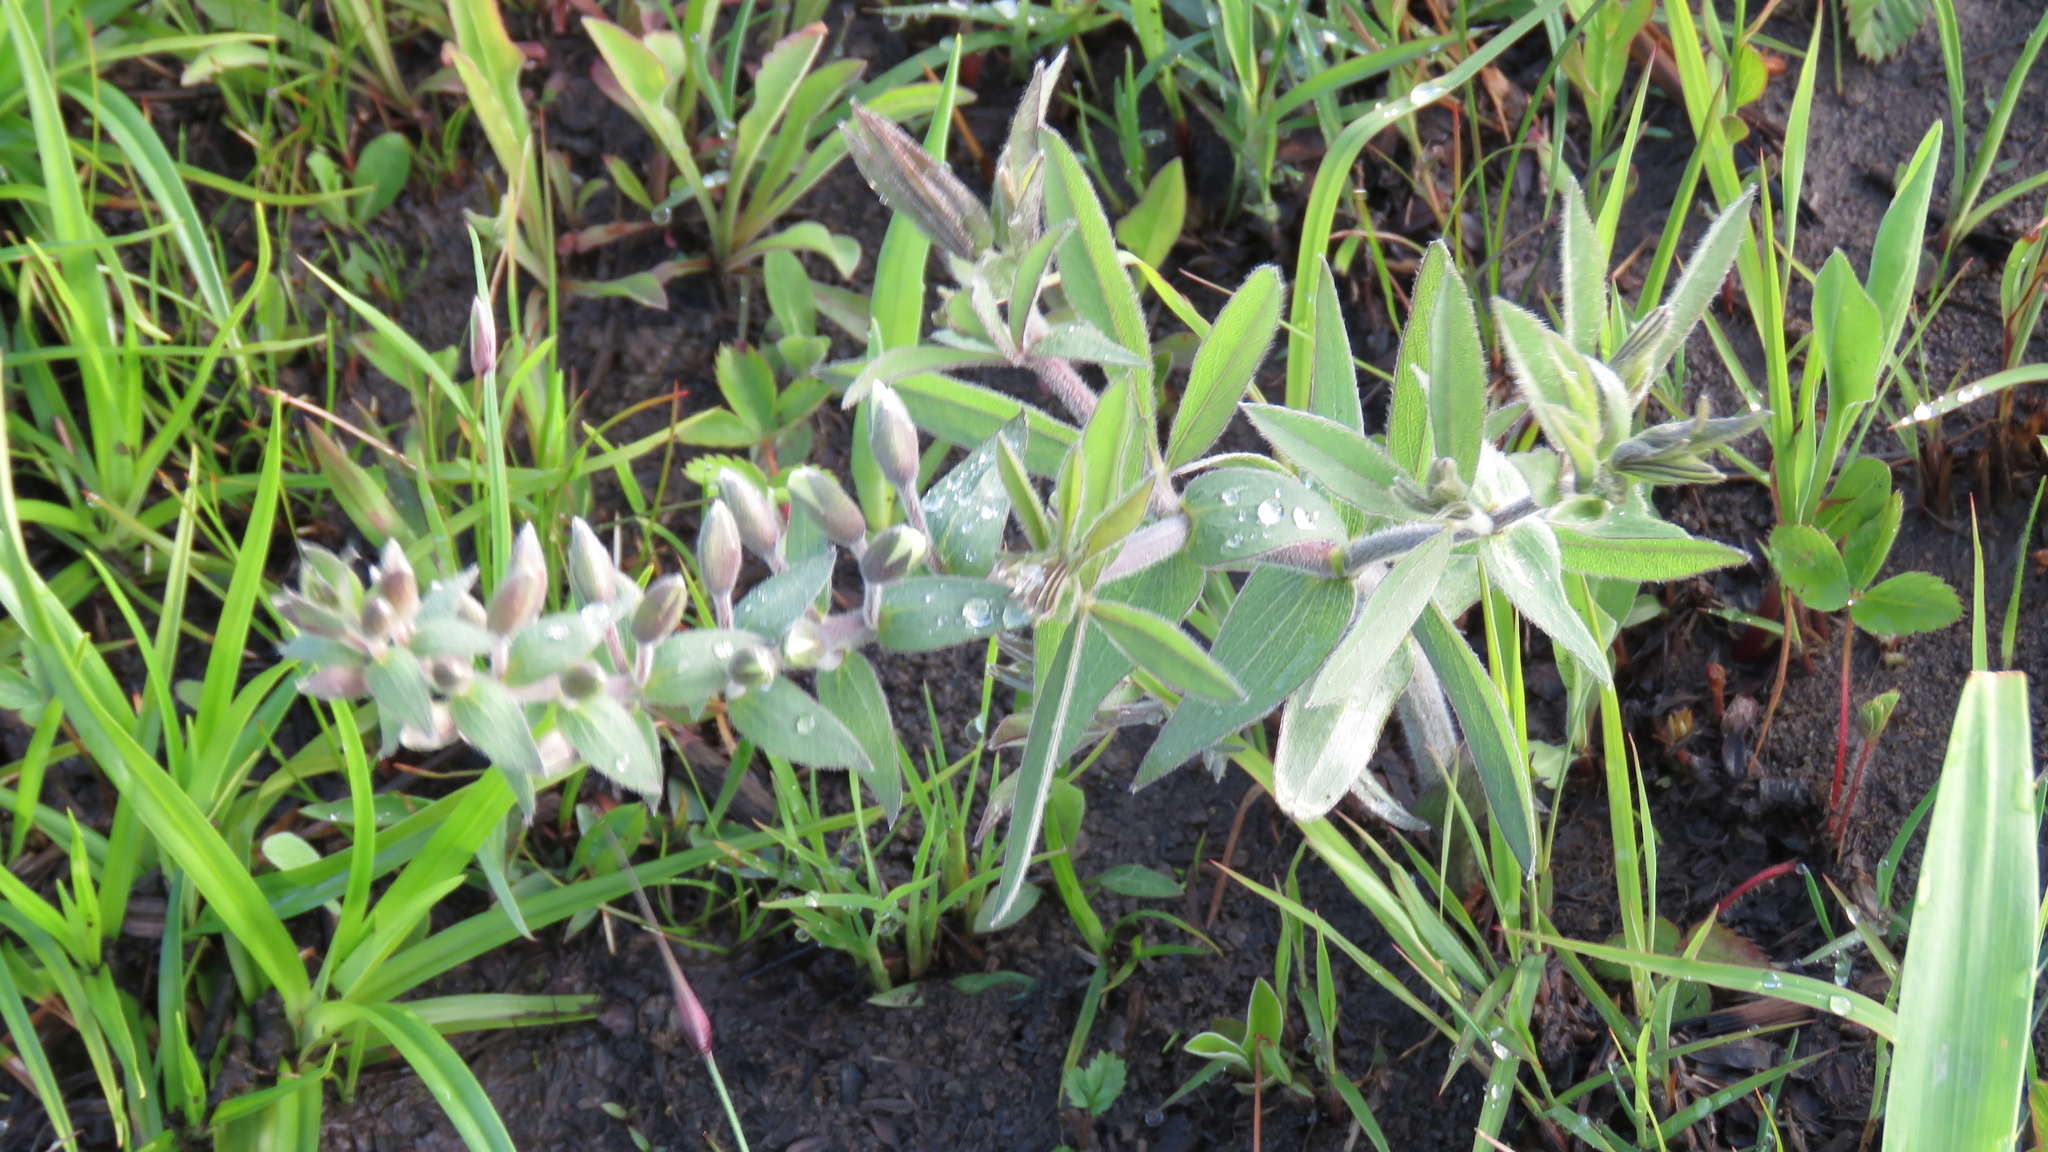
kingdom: Plantae
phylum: Tracheophyta
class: Magnoliopsida
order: Fabales
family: Fabaceae
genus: Baptisia
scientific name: Baptisia bracteata
